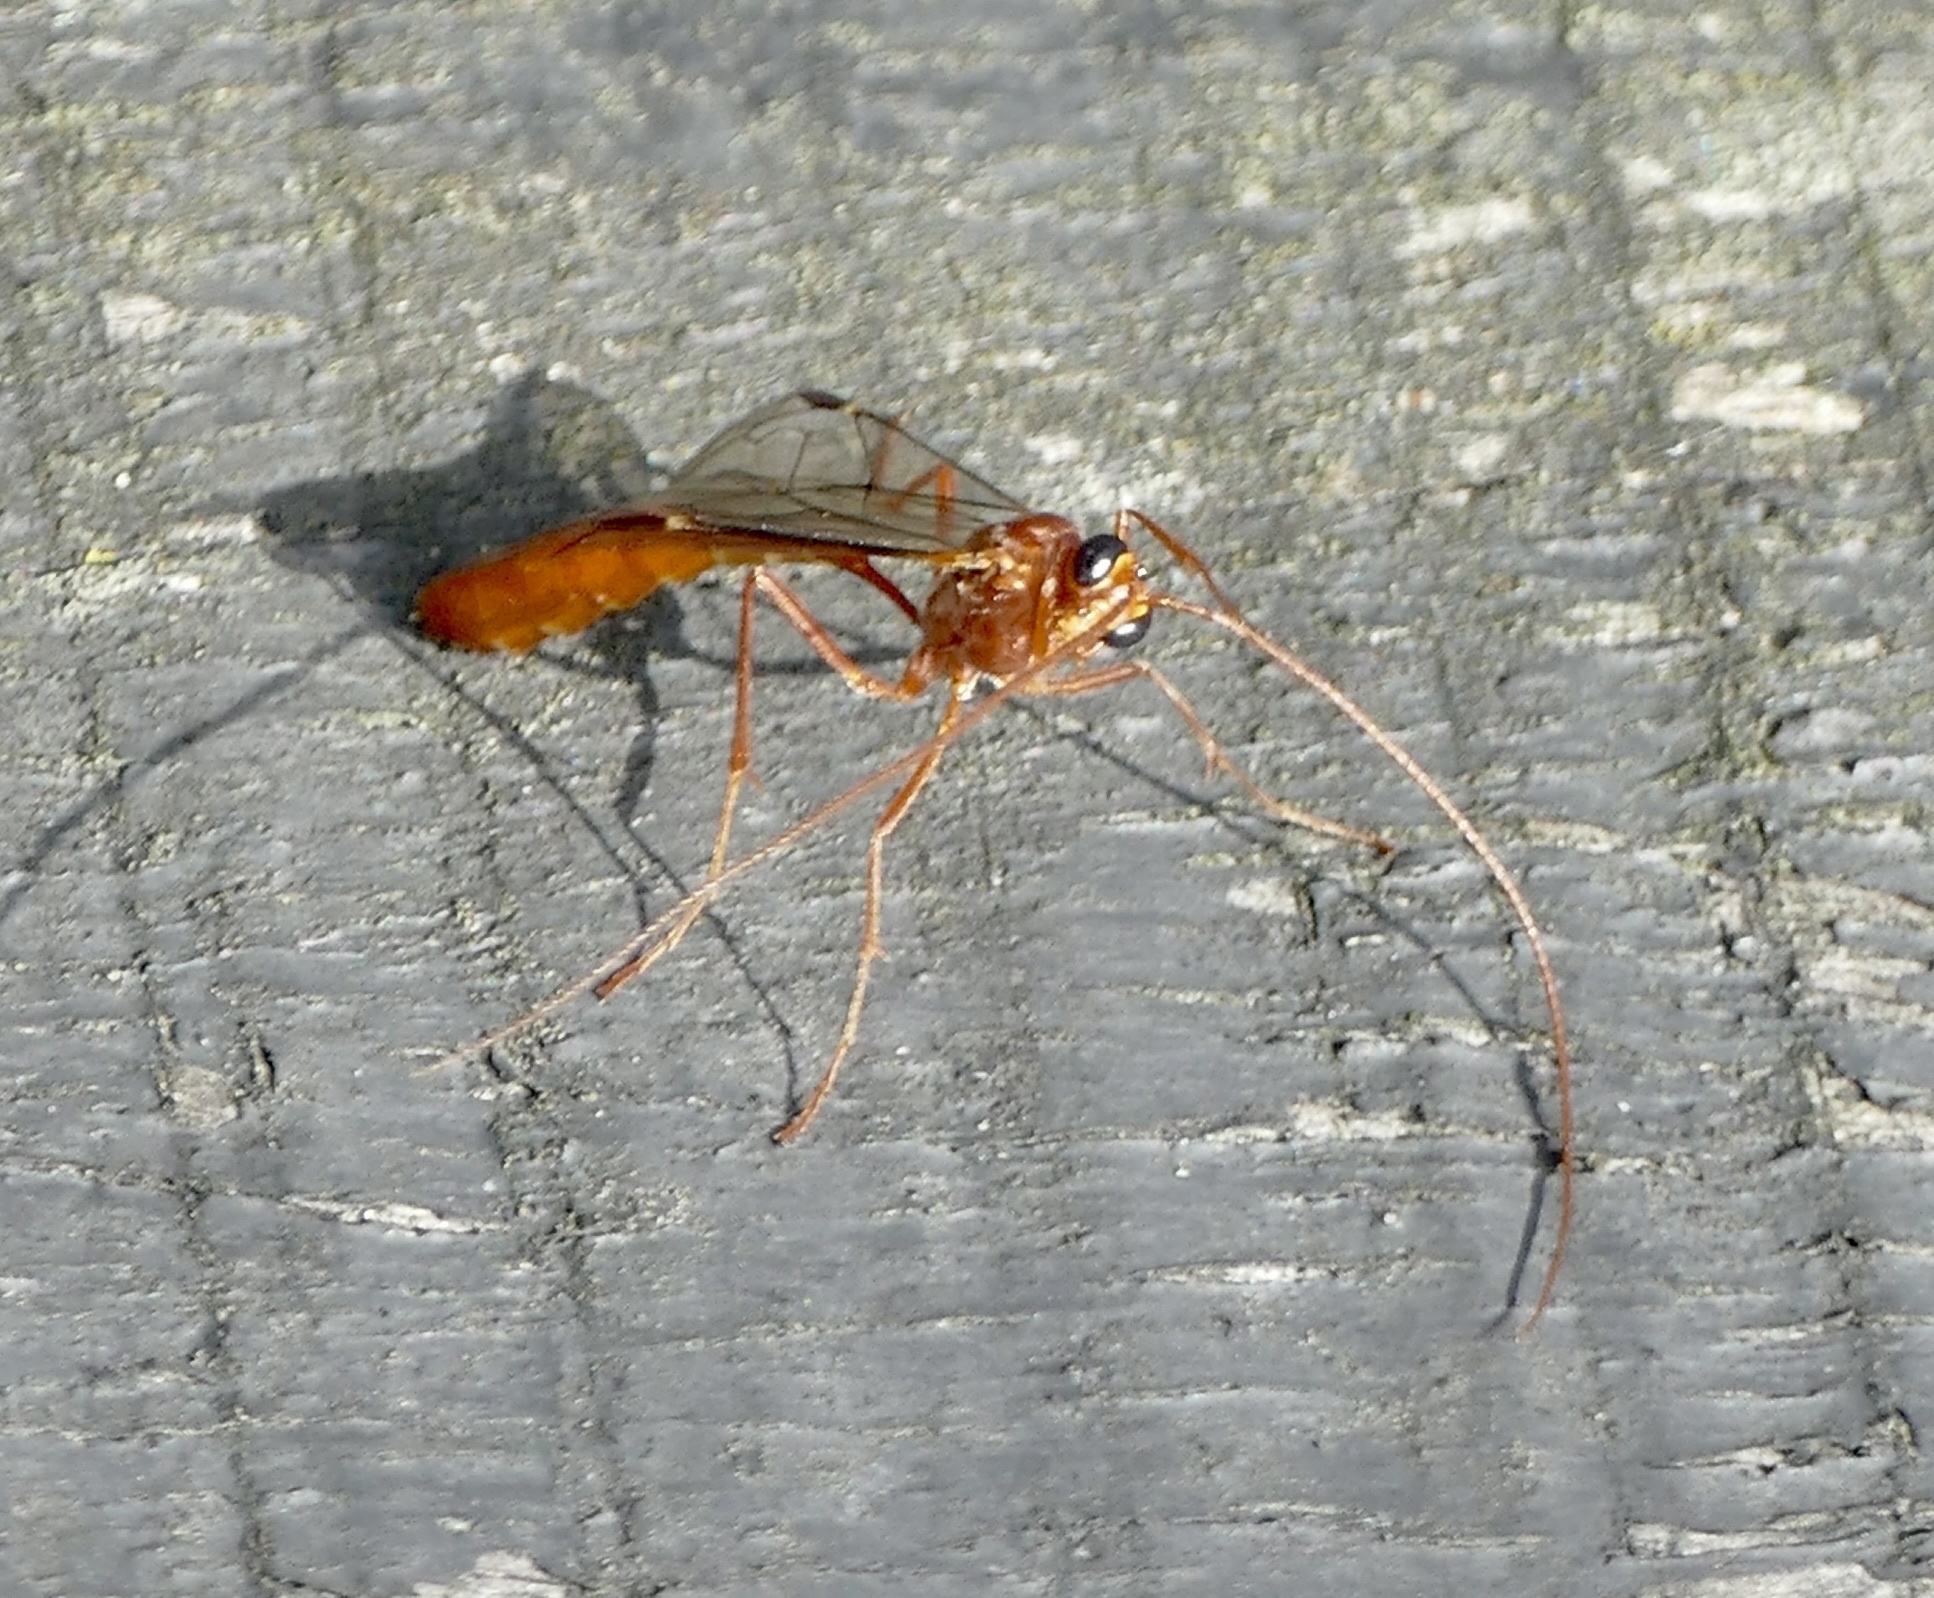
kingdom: Animalia
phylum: Arthropoda
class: Insecta
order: Hymenoptera
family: Ichneumonidae
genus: Ophion
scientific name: Ophion scutellaris
